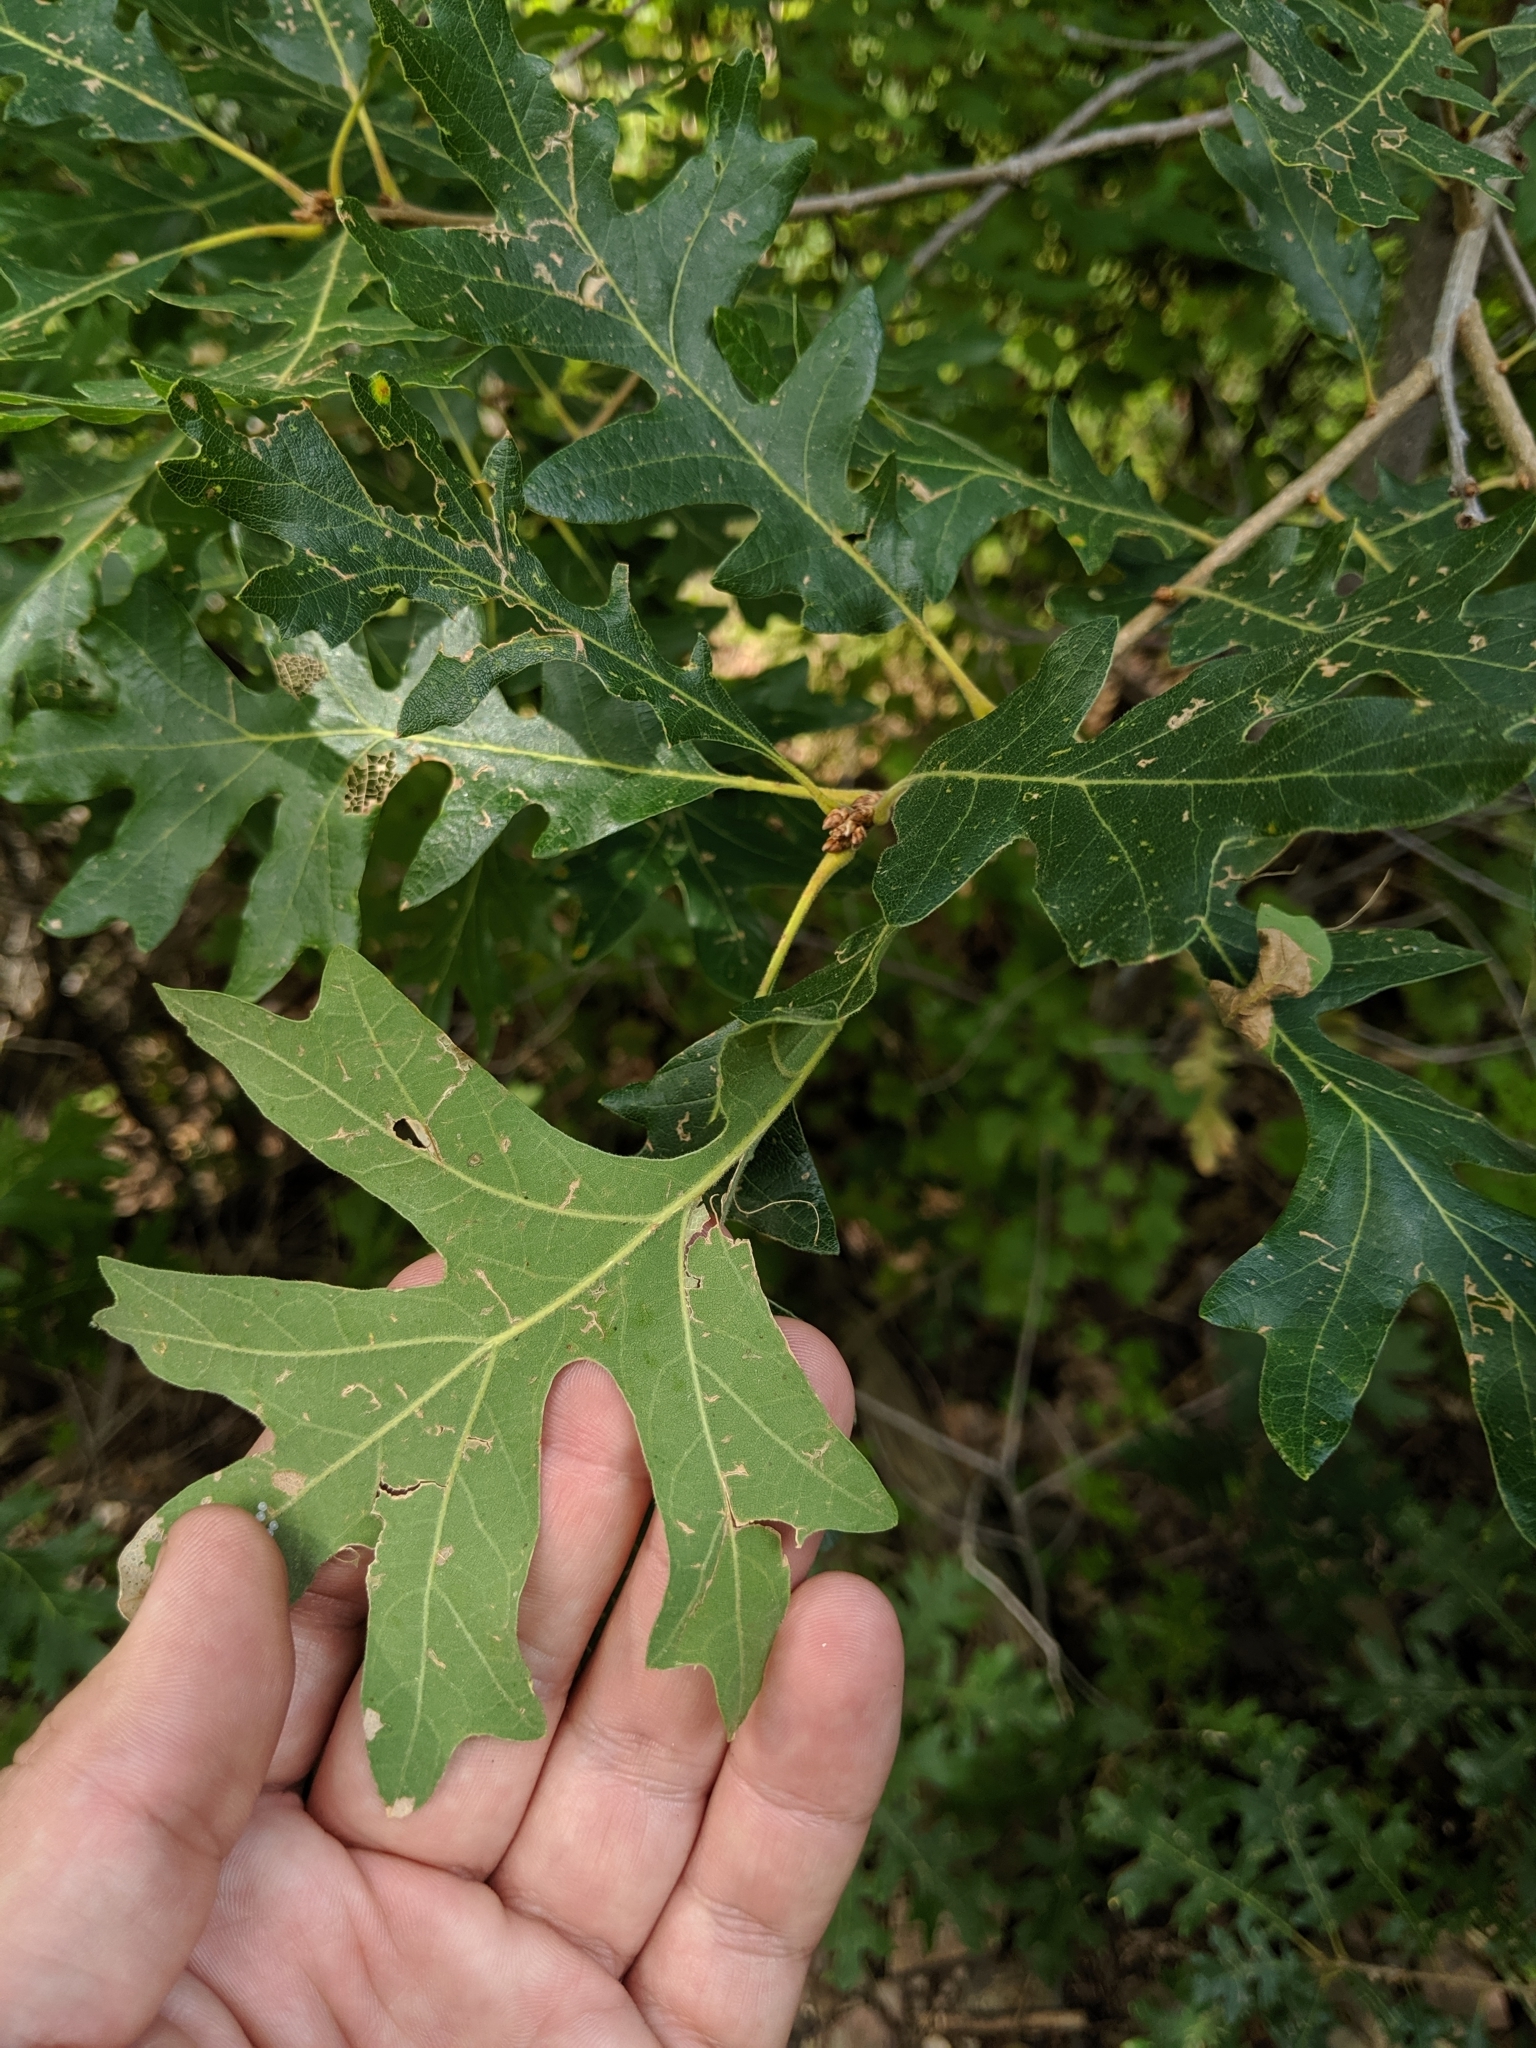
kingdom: Plantae
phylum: Tracheophyta
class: Magnoliopsida
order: Fagales
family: Fagaceae
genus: Quercus
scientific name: Quercus gambelii
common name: Gambel oak
